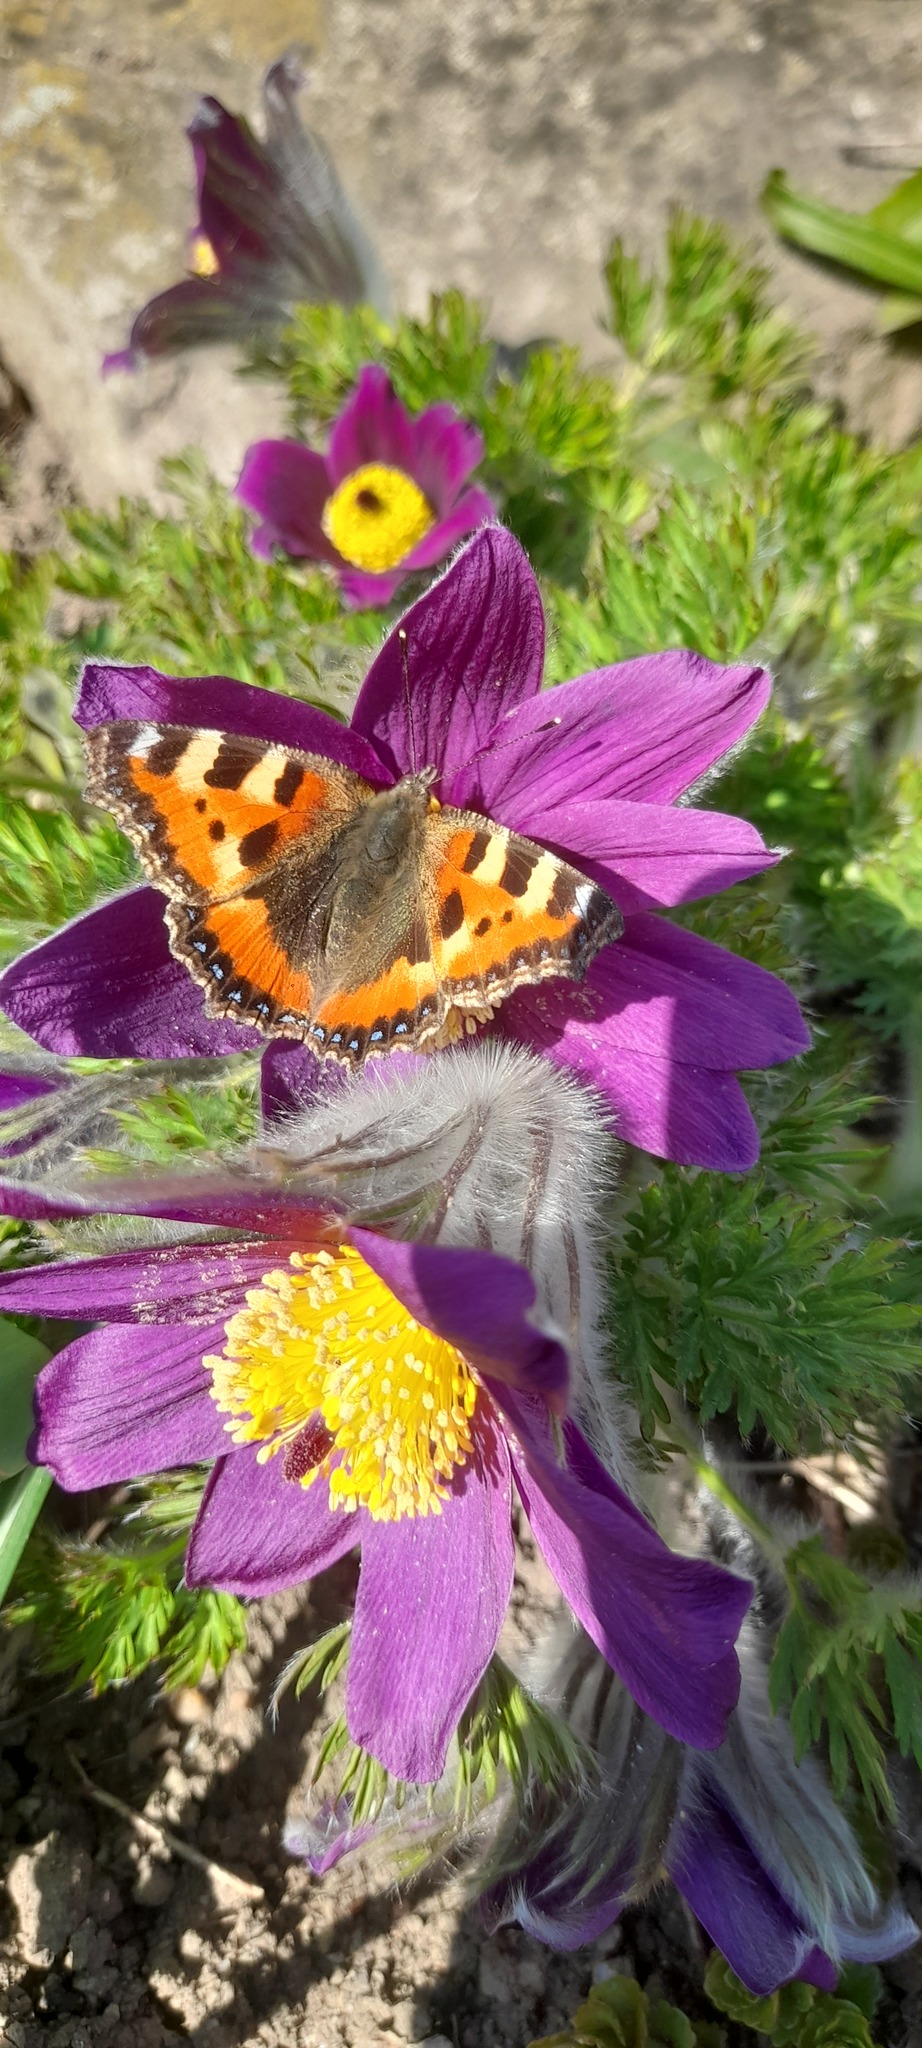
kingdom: Animalia
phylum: Arthropoda
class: Insecta
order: Lepidoptera
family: Nymphalidae
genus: Aglais
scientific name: Aglais urticae
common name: Small tortoiseshell
